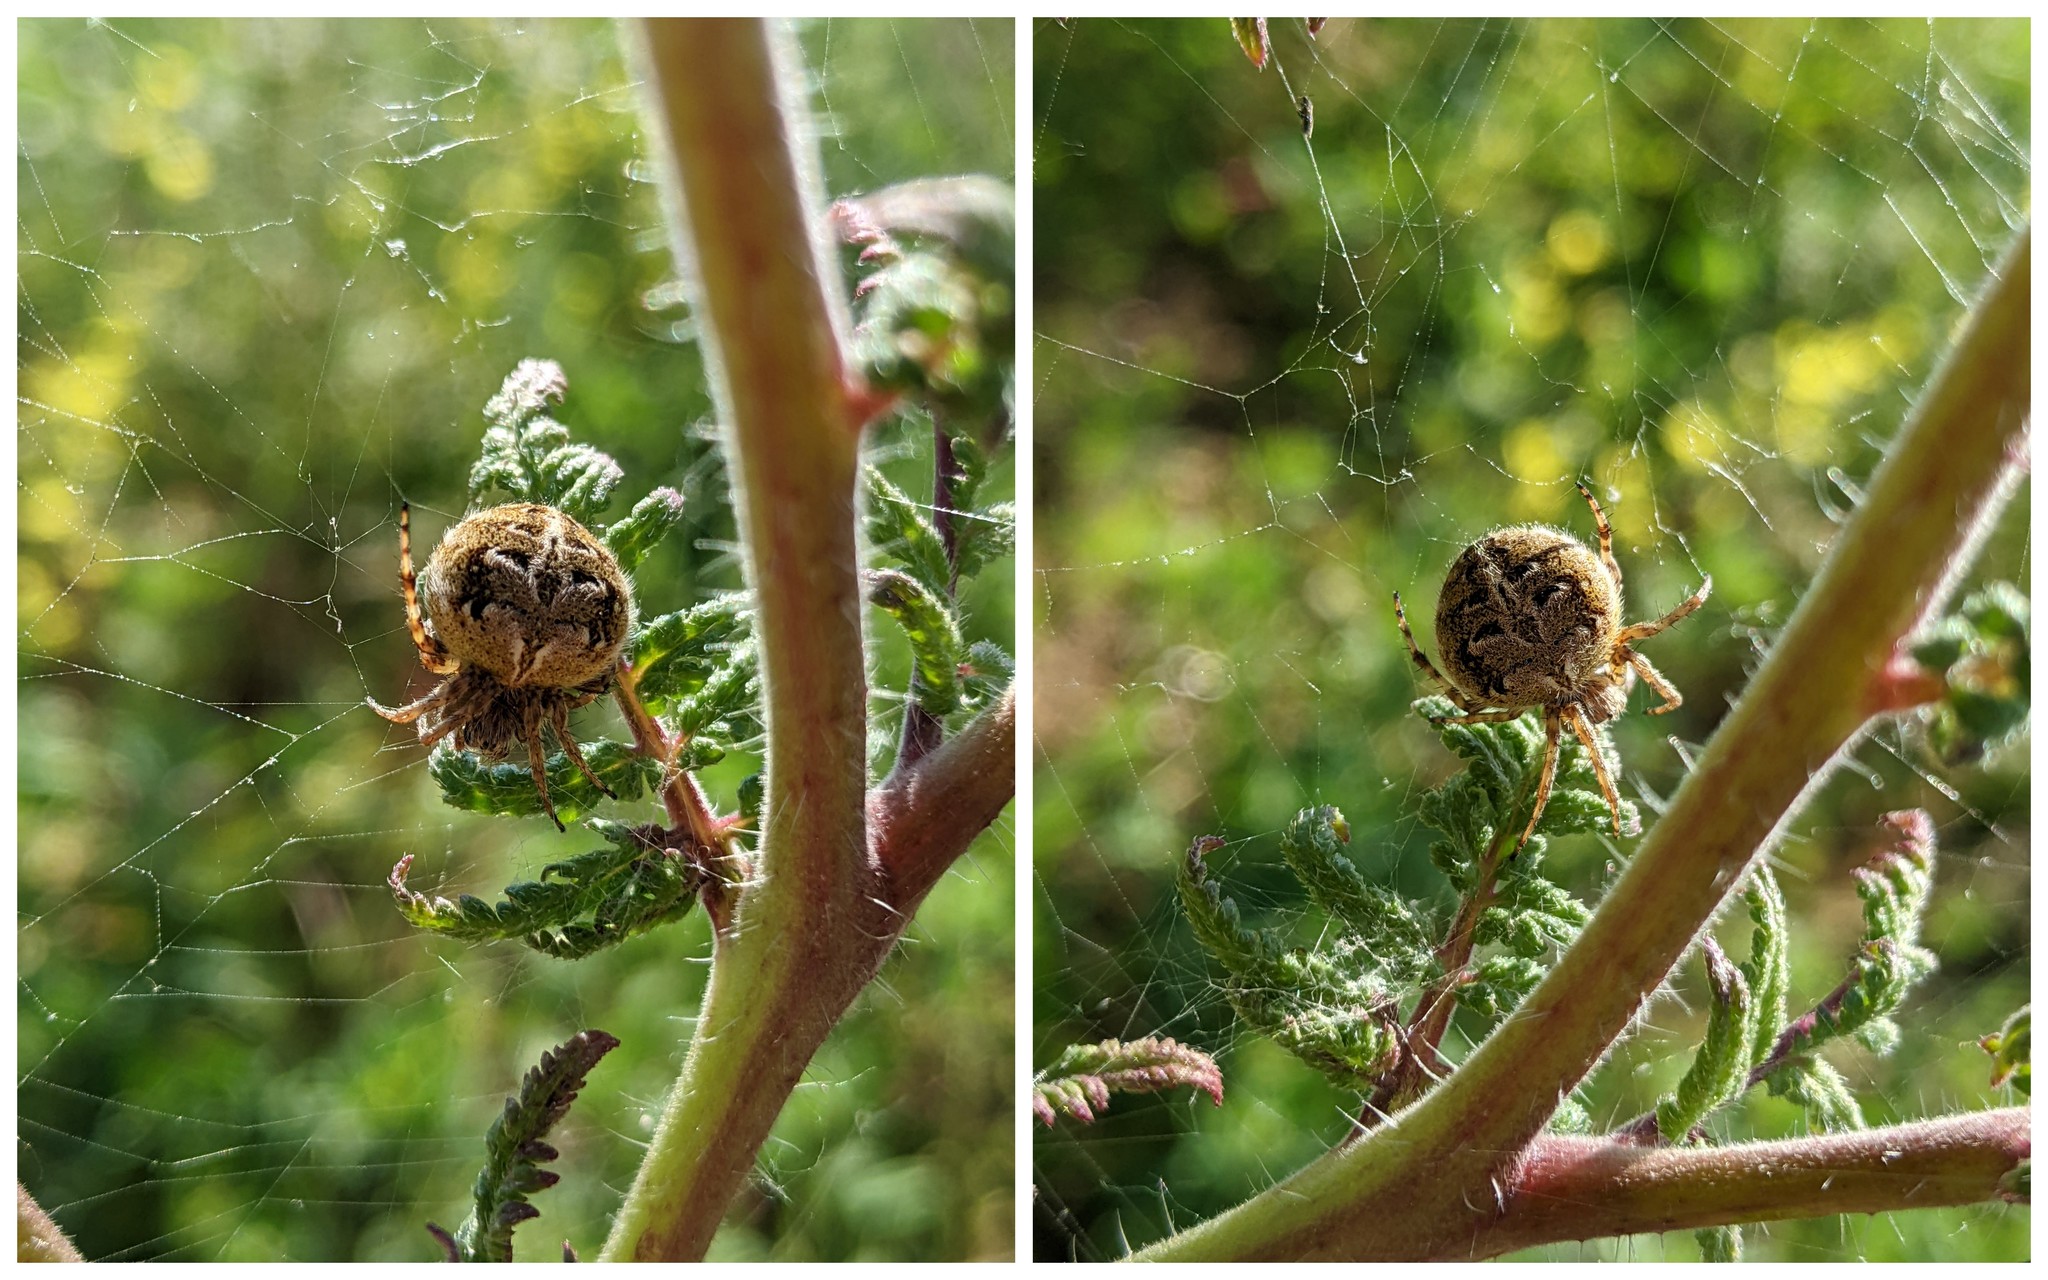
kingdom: Animalia
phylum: Arthropoda
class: Arachnida
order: Araneae
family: Araneidae
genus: Agalenatea
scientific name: Agalenatea redii
